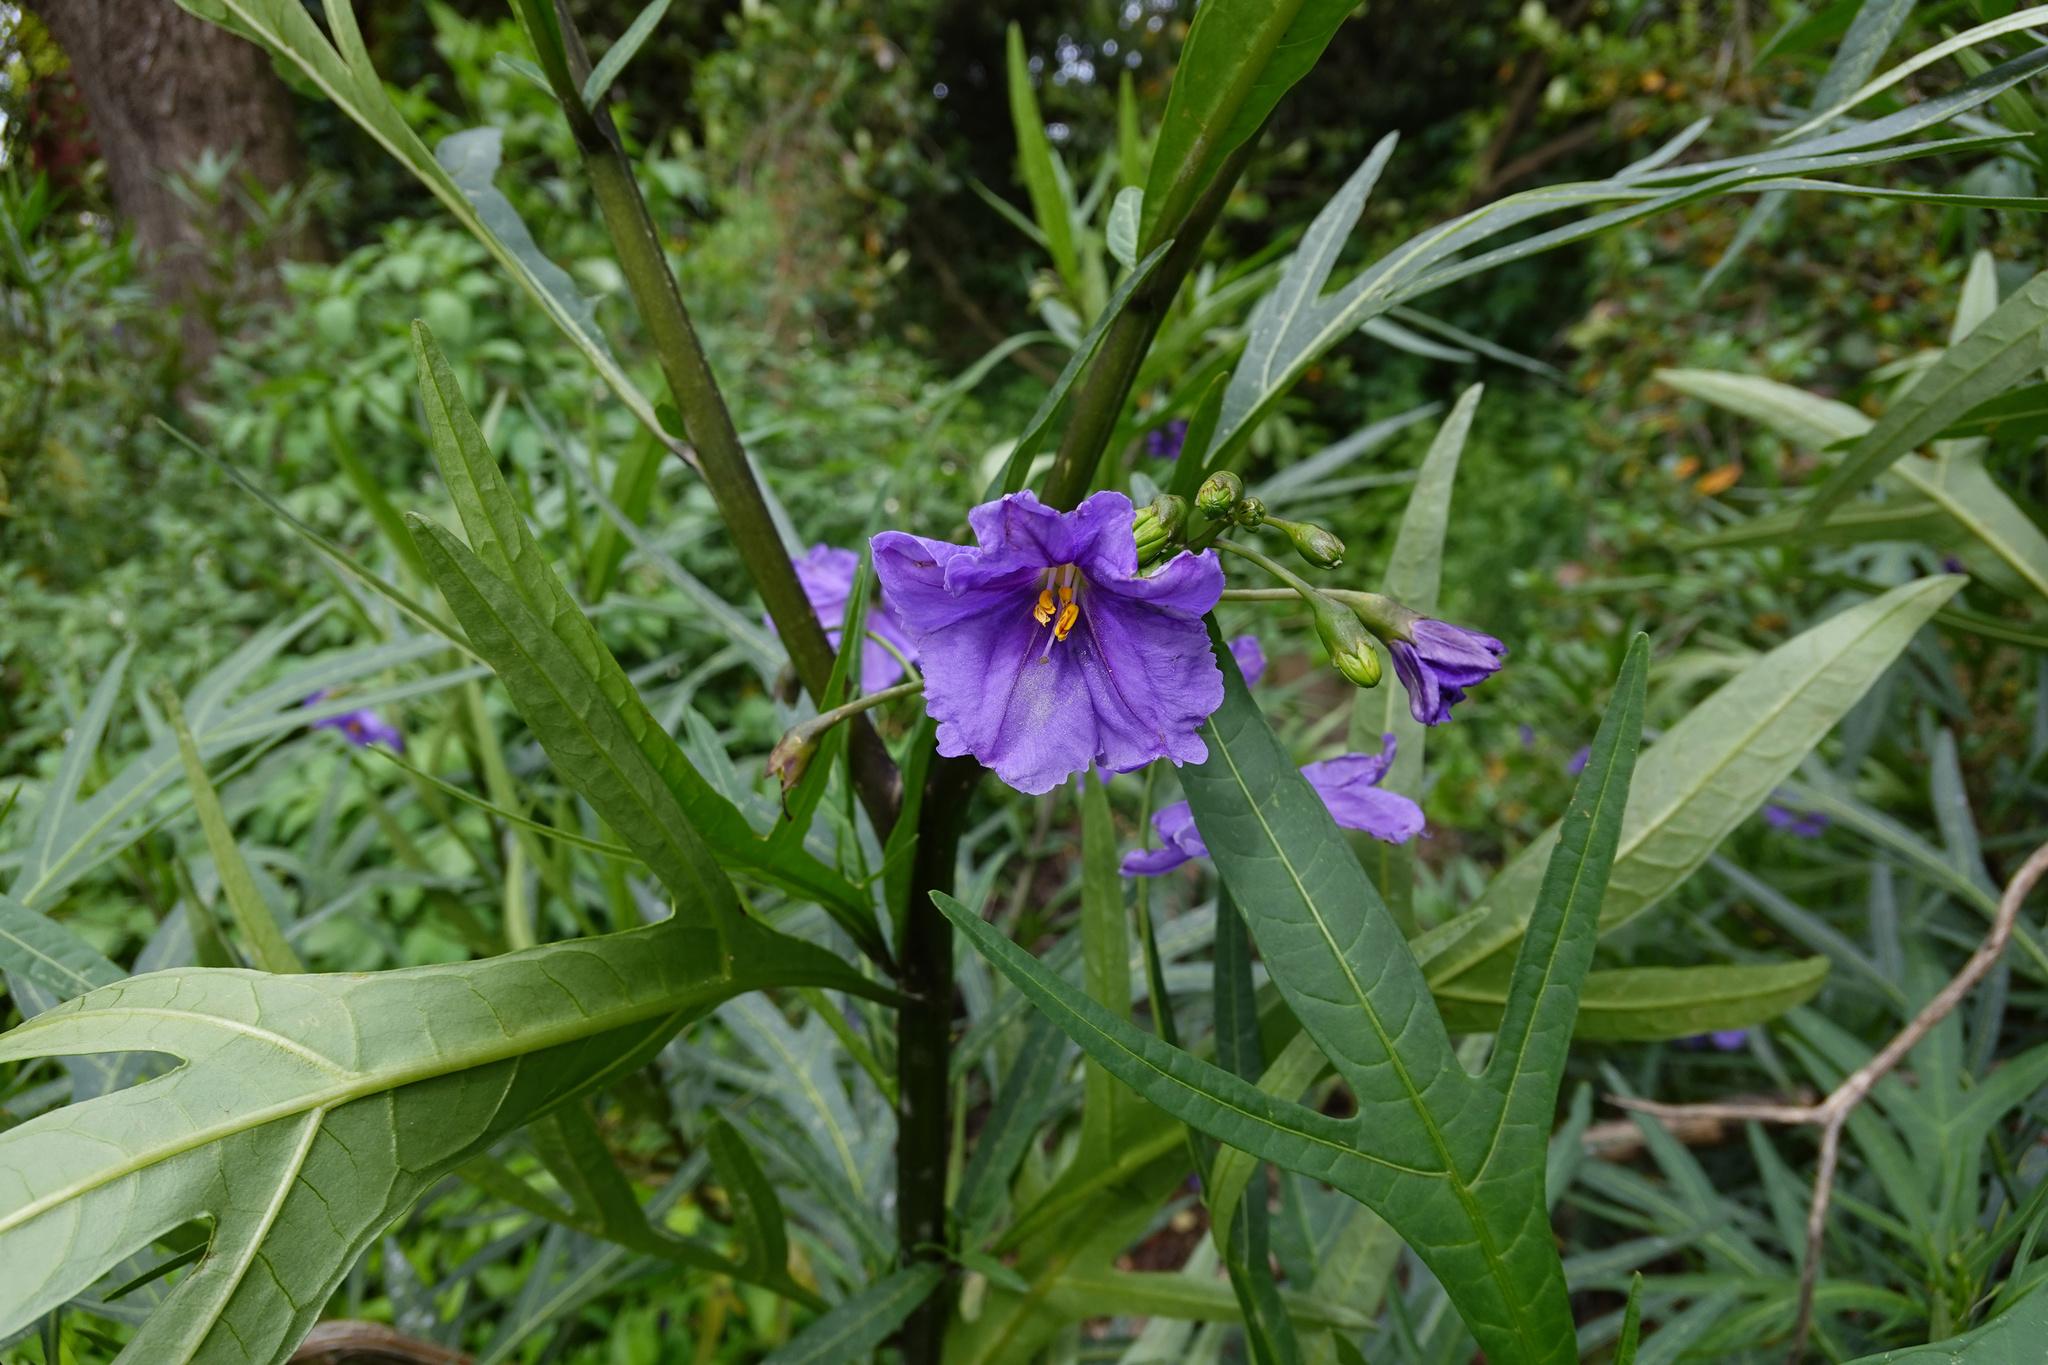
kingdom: Plantae
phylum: Tracheophyta
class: Magnoliopsida
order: Solanales
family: Solanaceae
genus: Solanum
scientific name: Solanum laciniatum
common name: Kangaroo-apple
